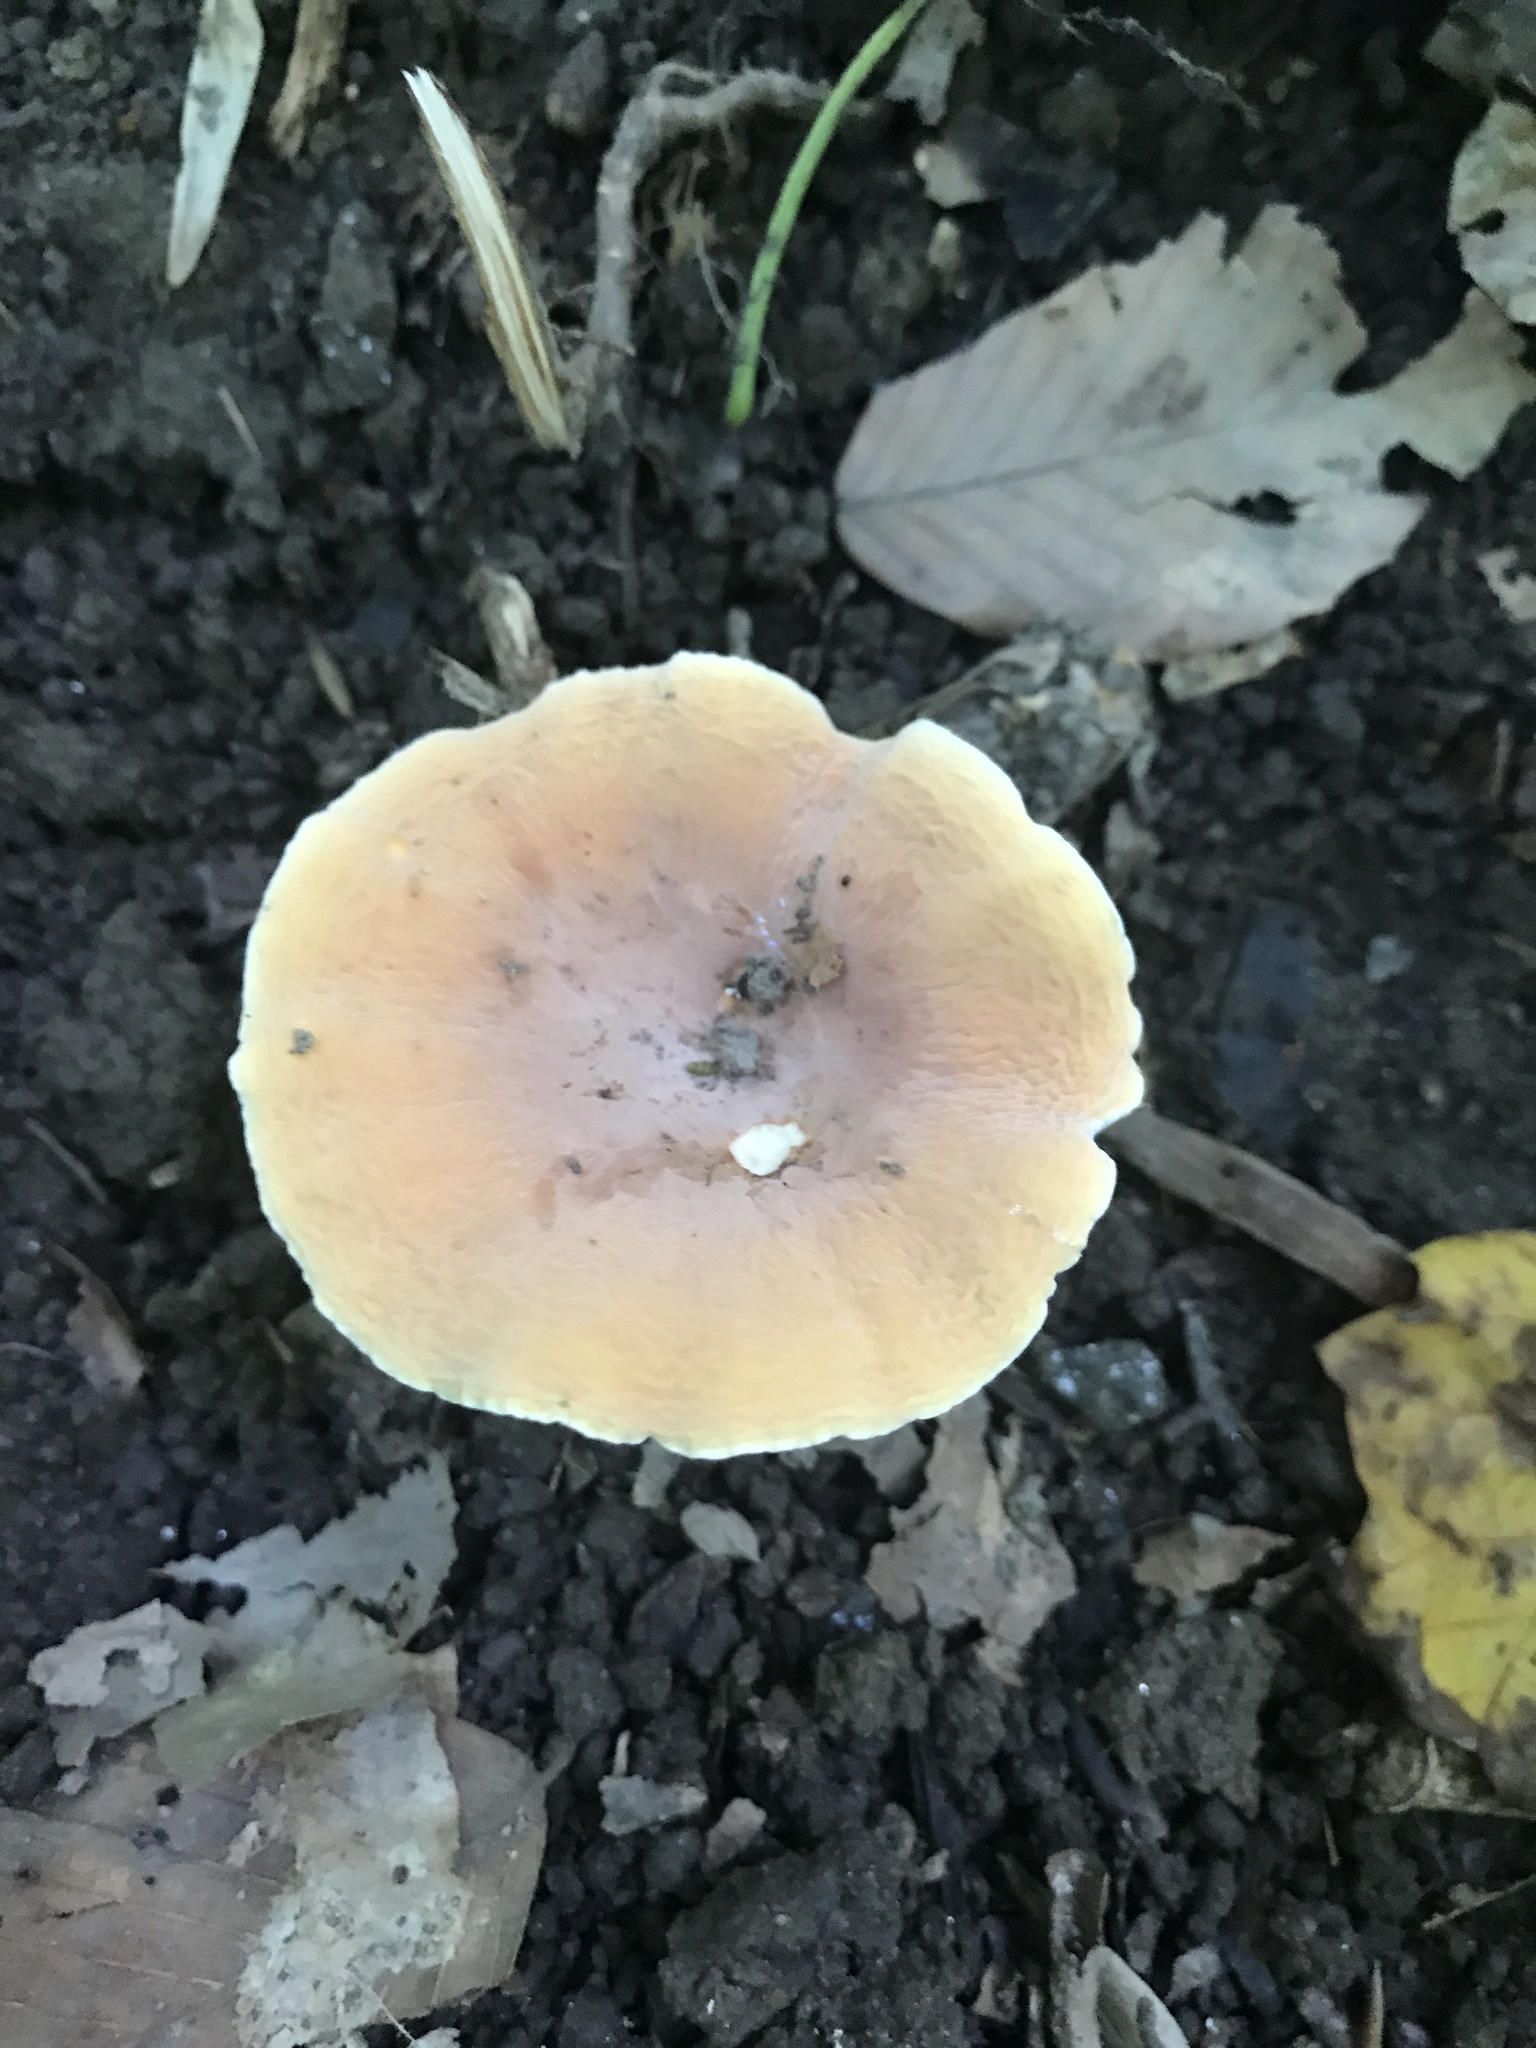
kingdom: Fungi
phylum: Basidiomycota
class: Agaricomycetes
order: Russulales
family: Russulaceae
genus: Lactarius
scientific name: Lactarius hygrophoroides
